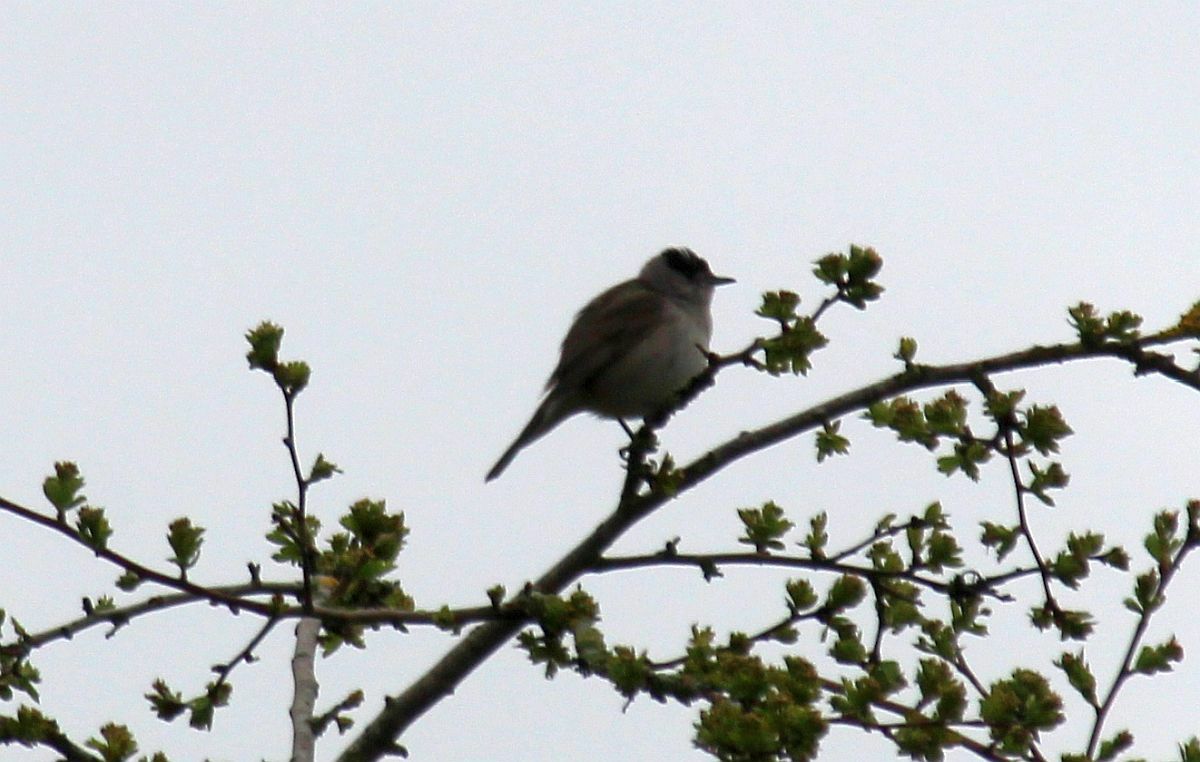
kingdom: Animalia
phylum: Chordata
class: Aves
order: Passeriformes
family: Sylviidae
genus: Sylvia
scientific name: Sylvia atricapilla
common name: Eurasian blackcap
